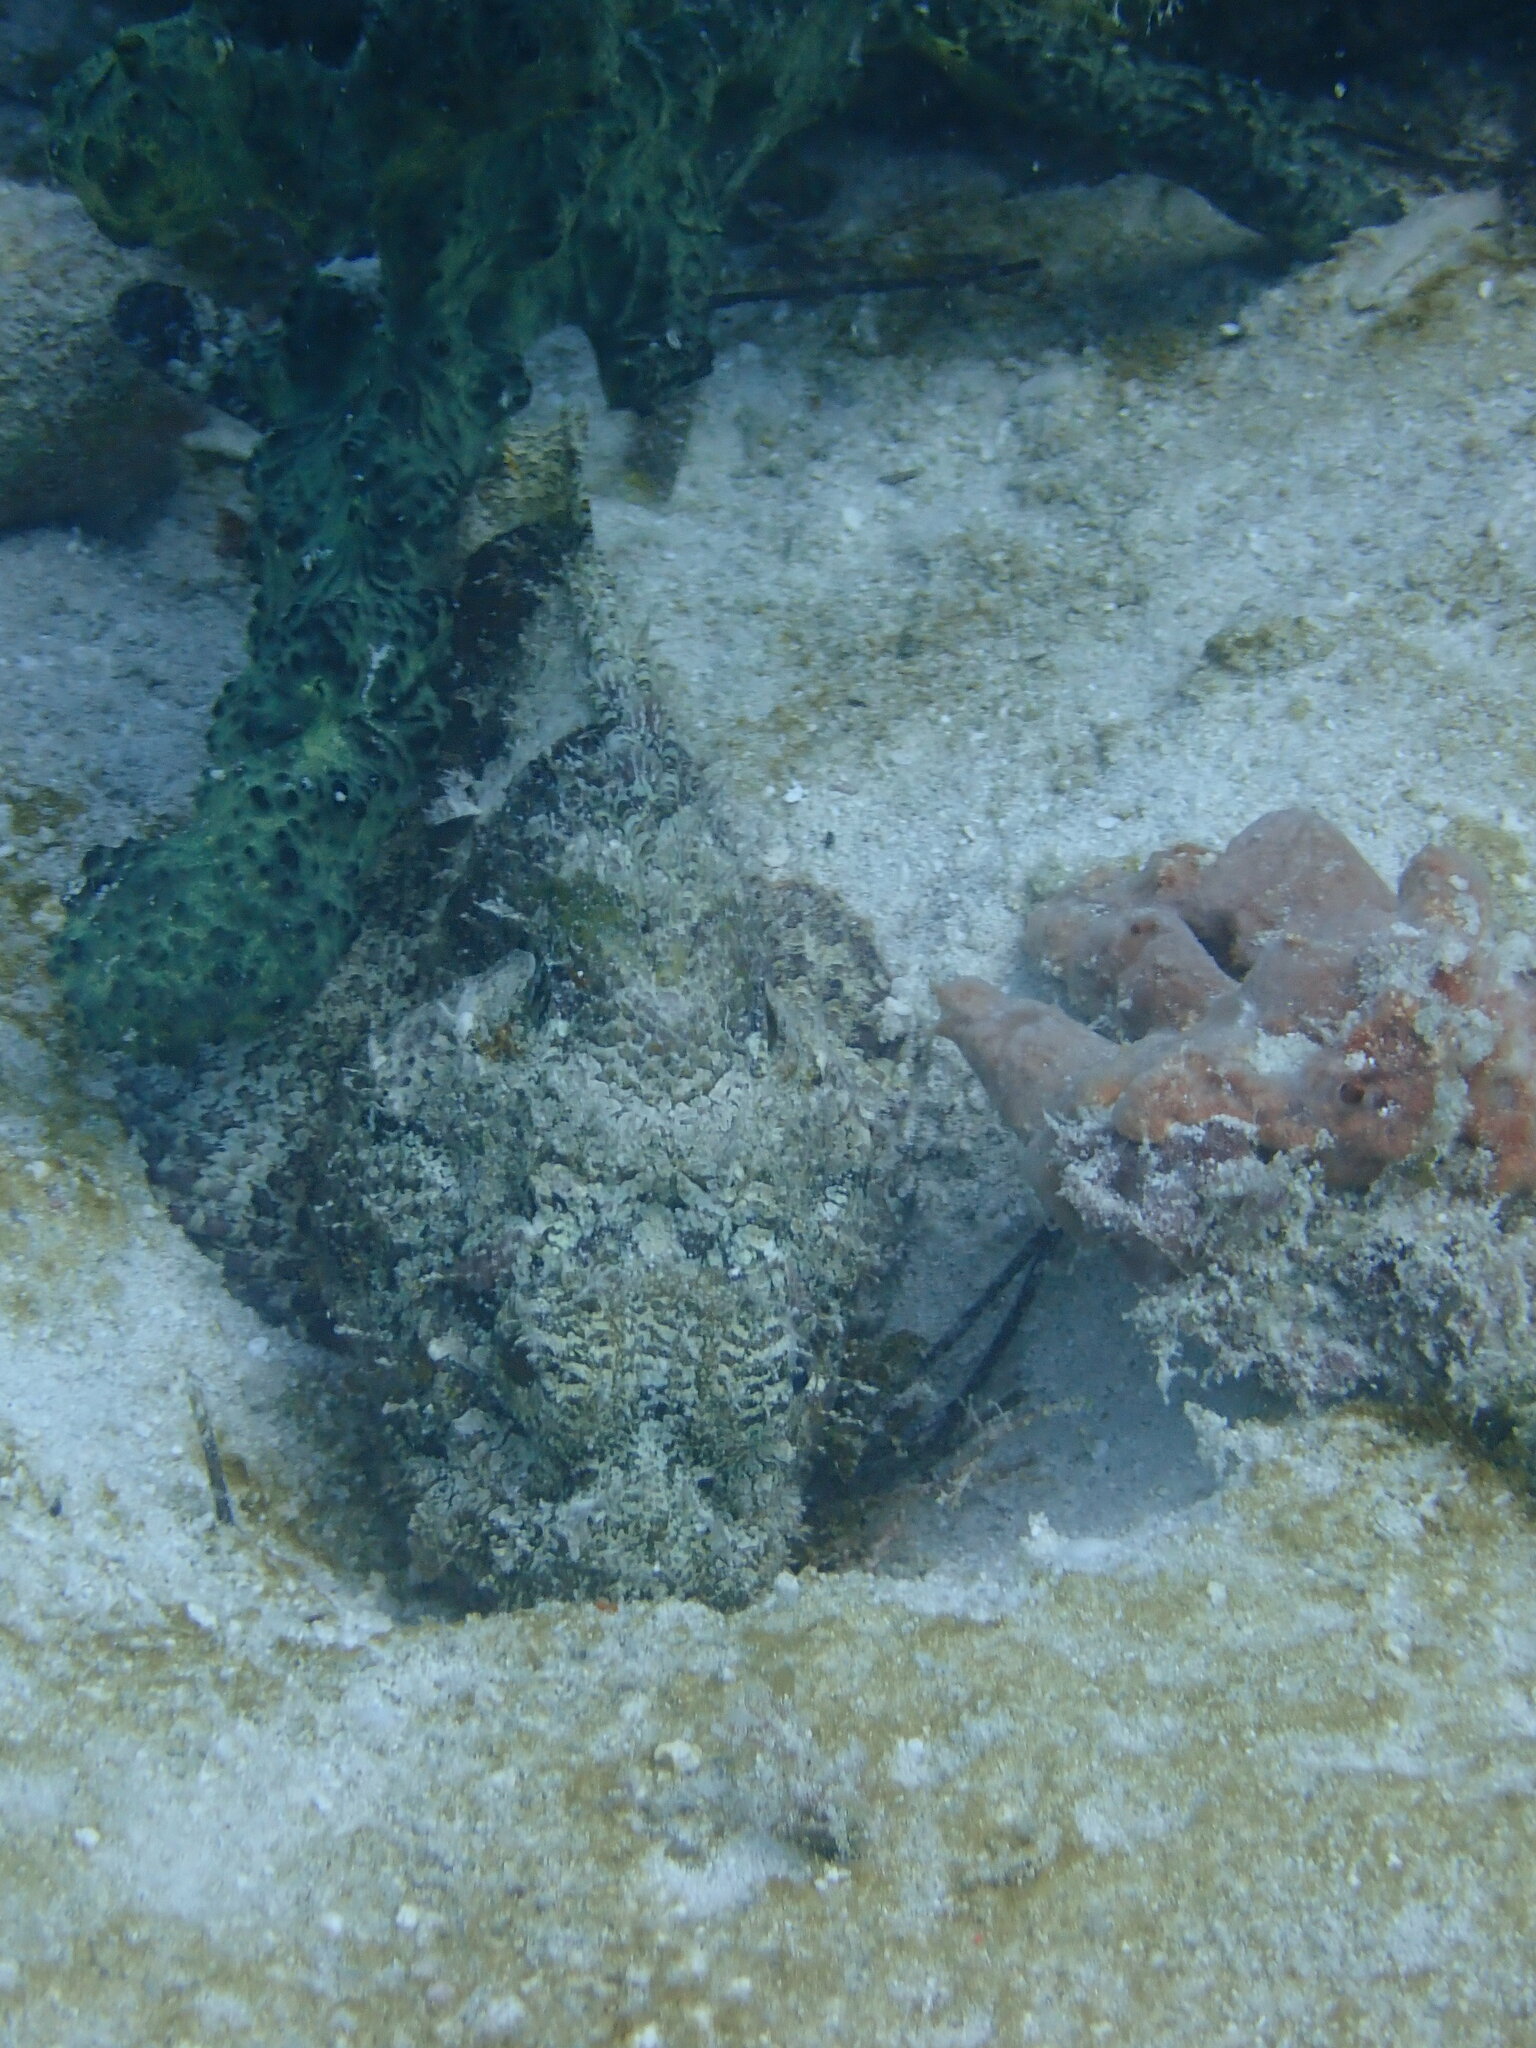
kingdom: Animalia
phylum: Chordata
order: Scorpaeniformes
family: Scorpaenidae
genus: Scorpaena
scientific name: Scorpaena plumieri
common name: Spotted scorpionfish
